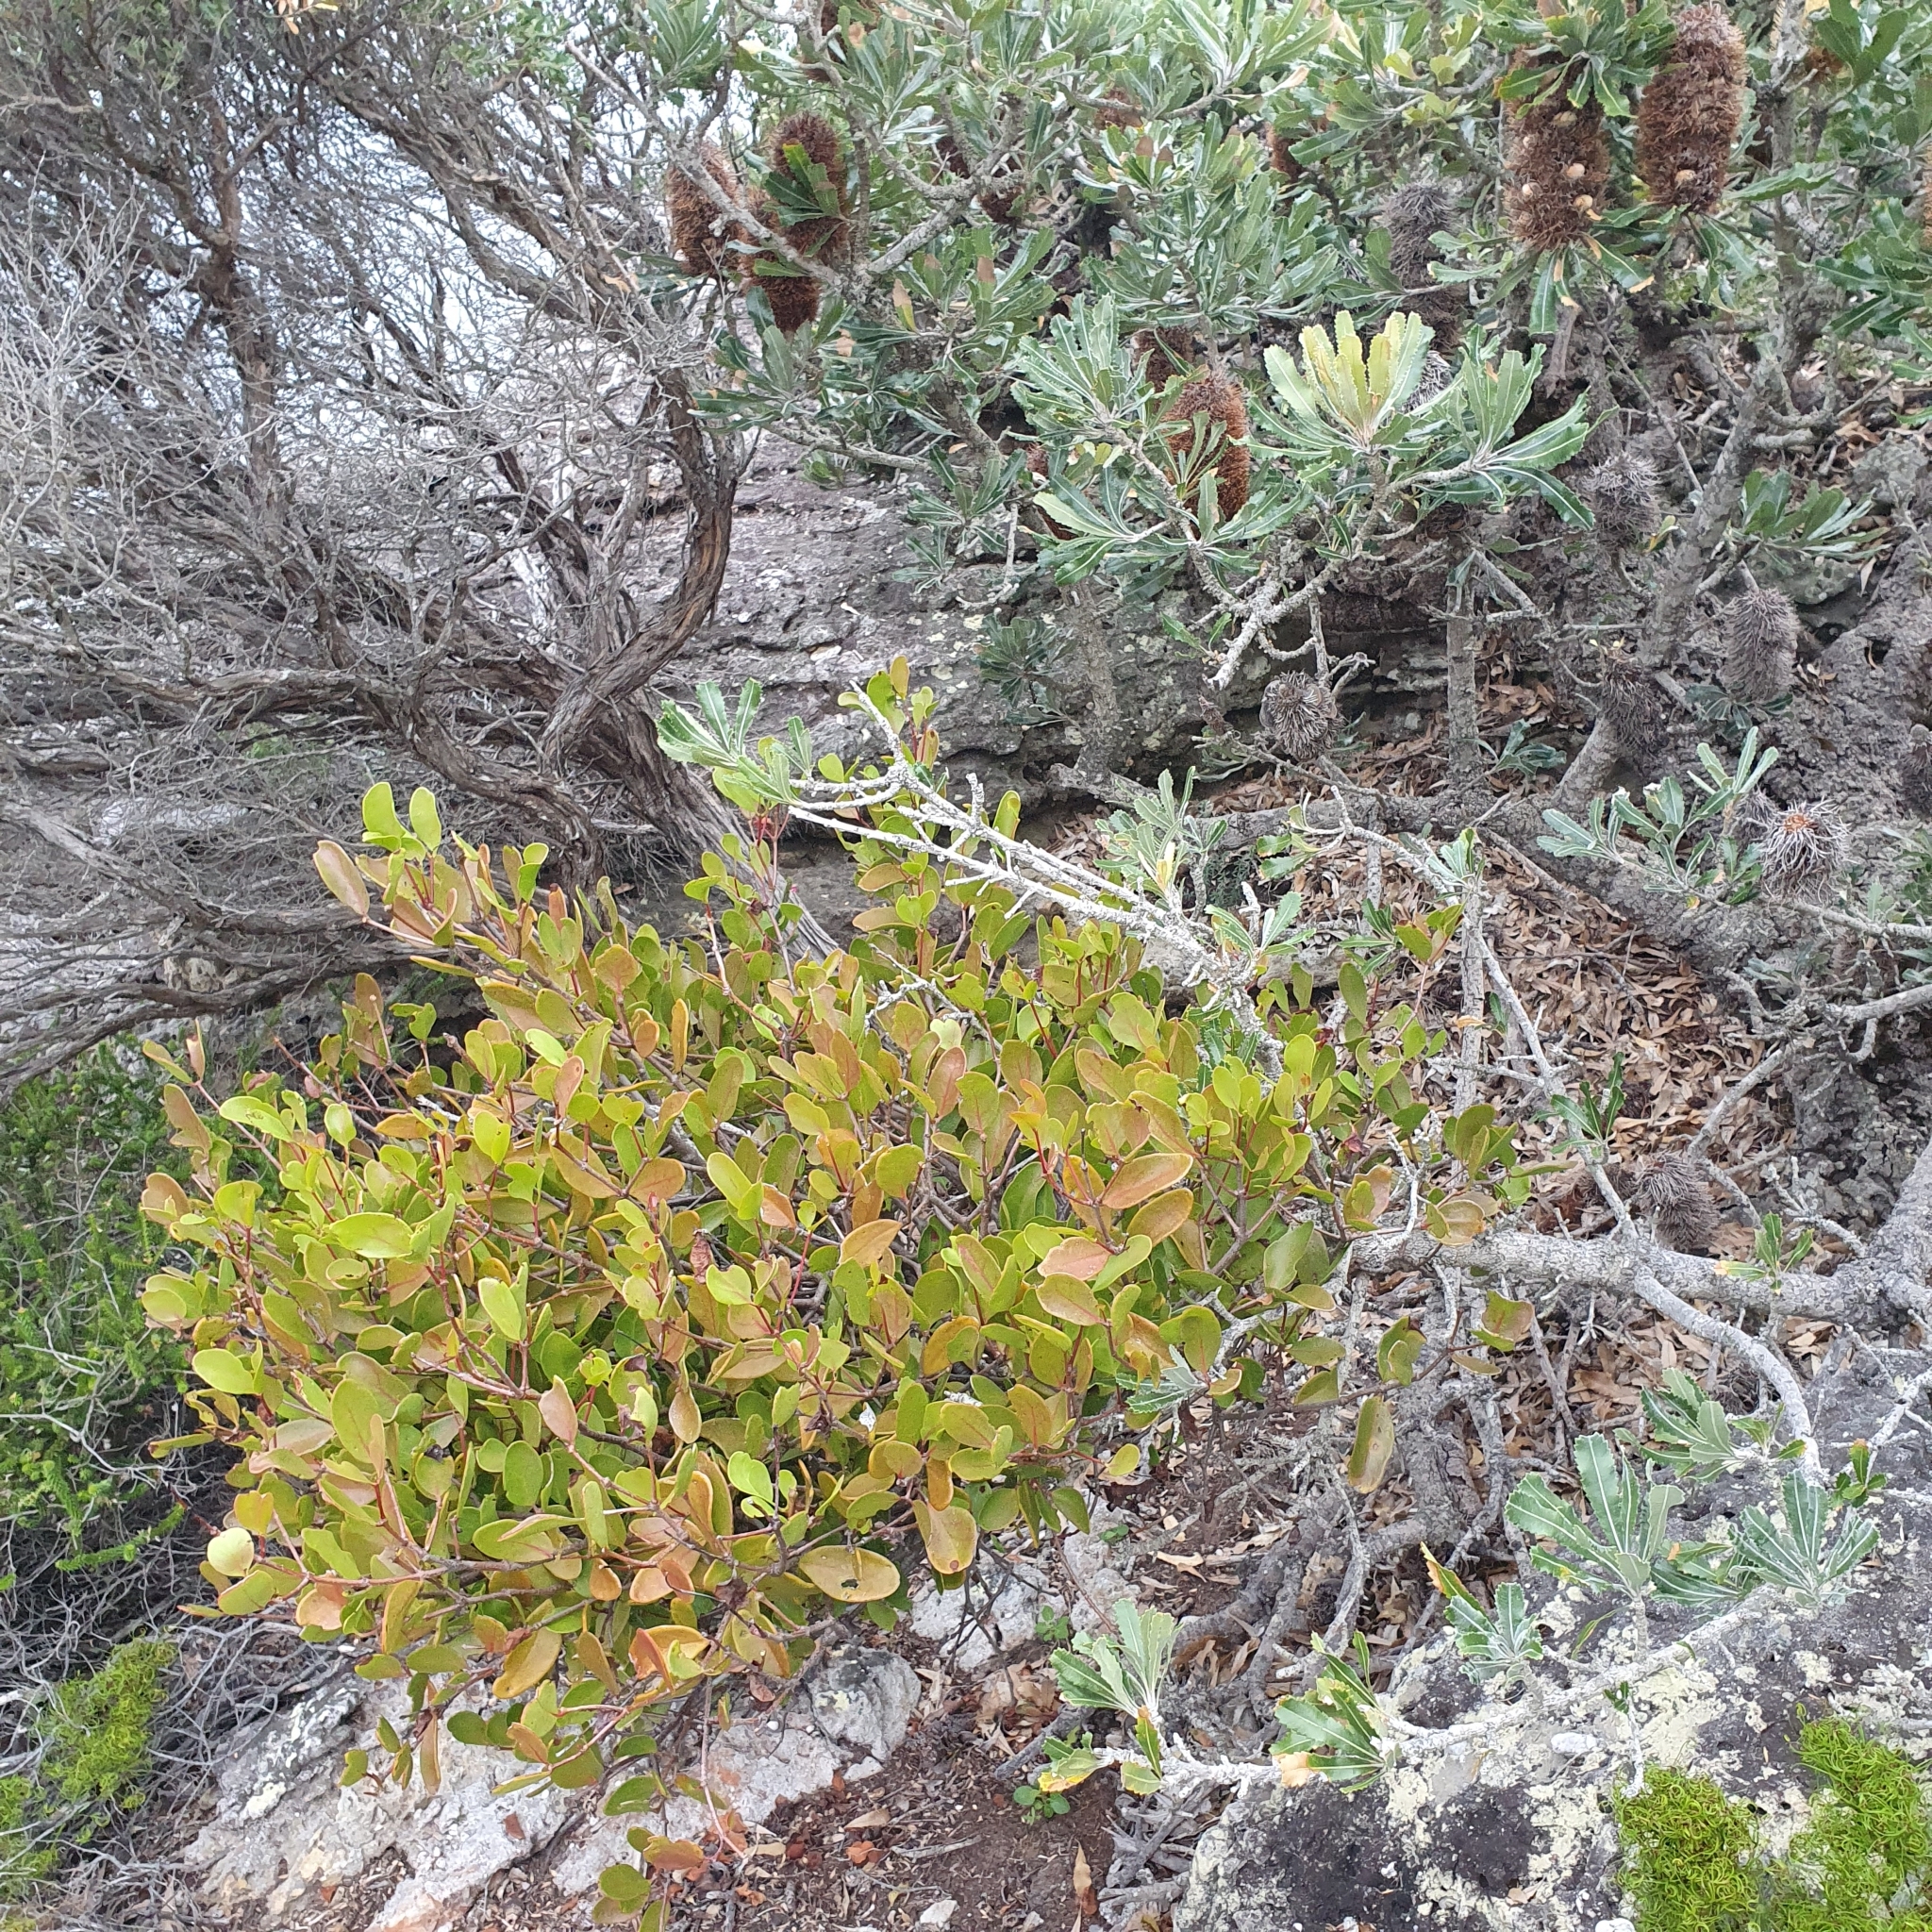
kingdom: Plantae
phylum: Tracheophyta
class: Magnoliopsida
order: Santalales
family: Loranthaceae
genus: Muellerina
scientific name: Muellerina celastroides
